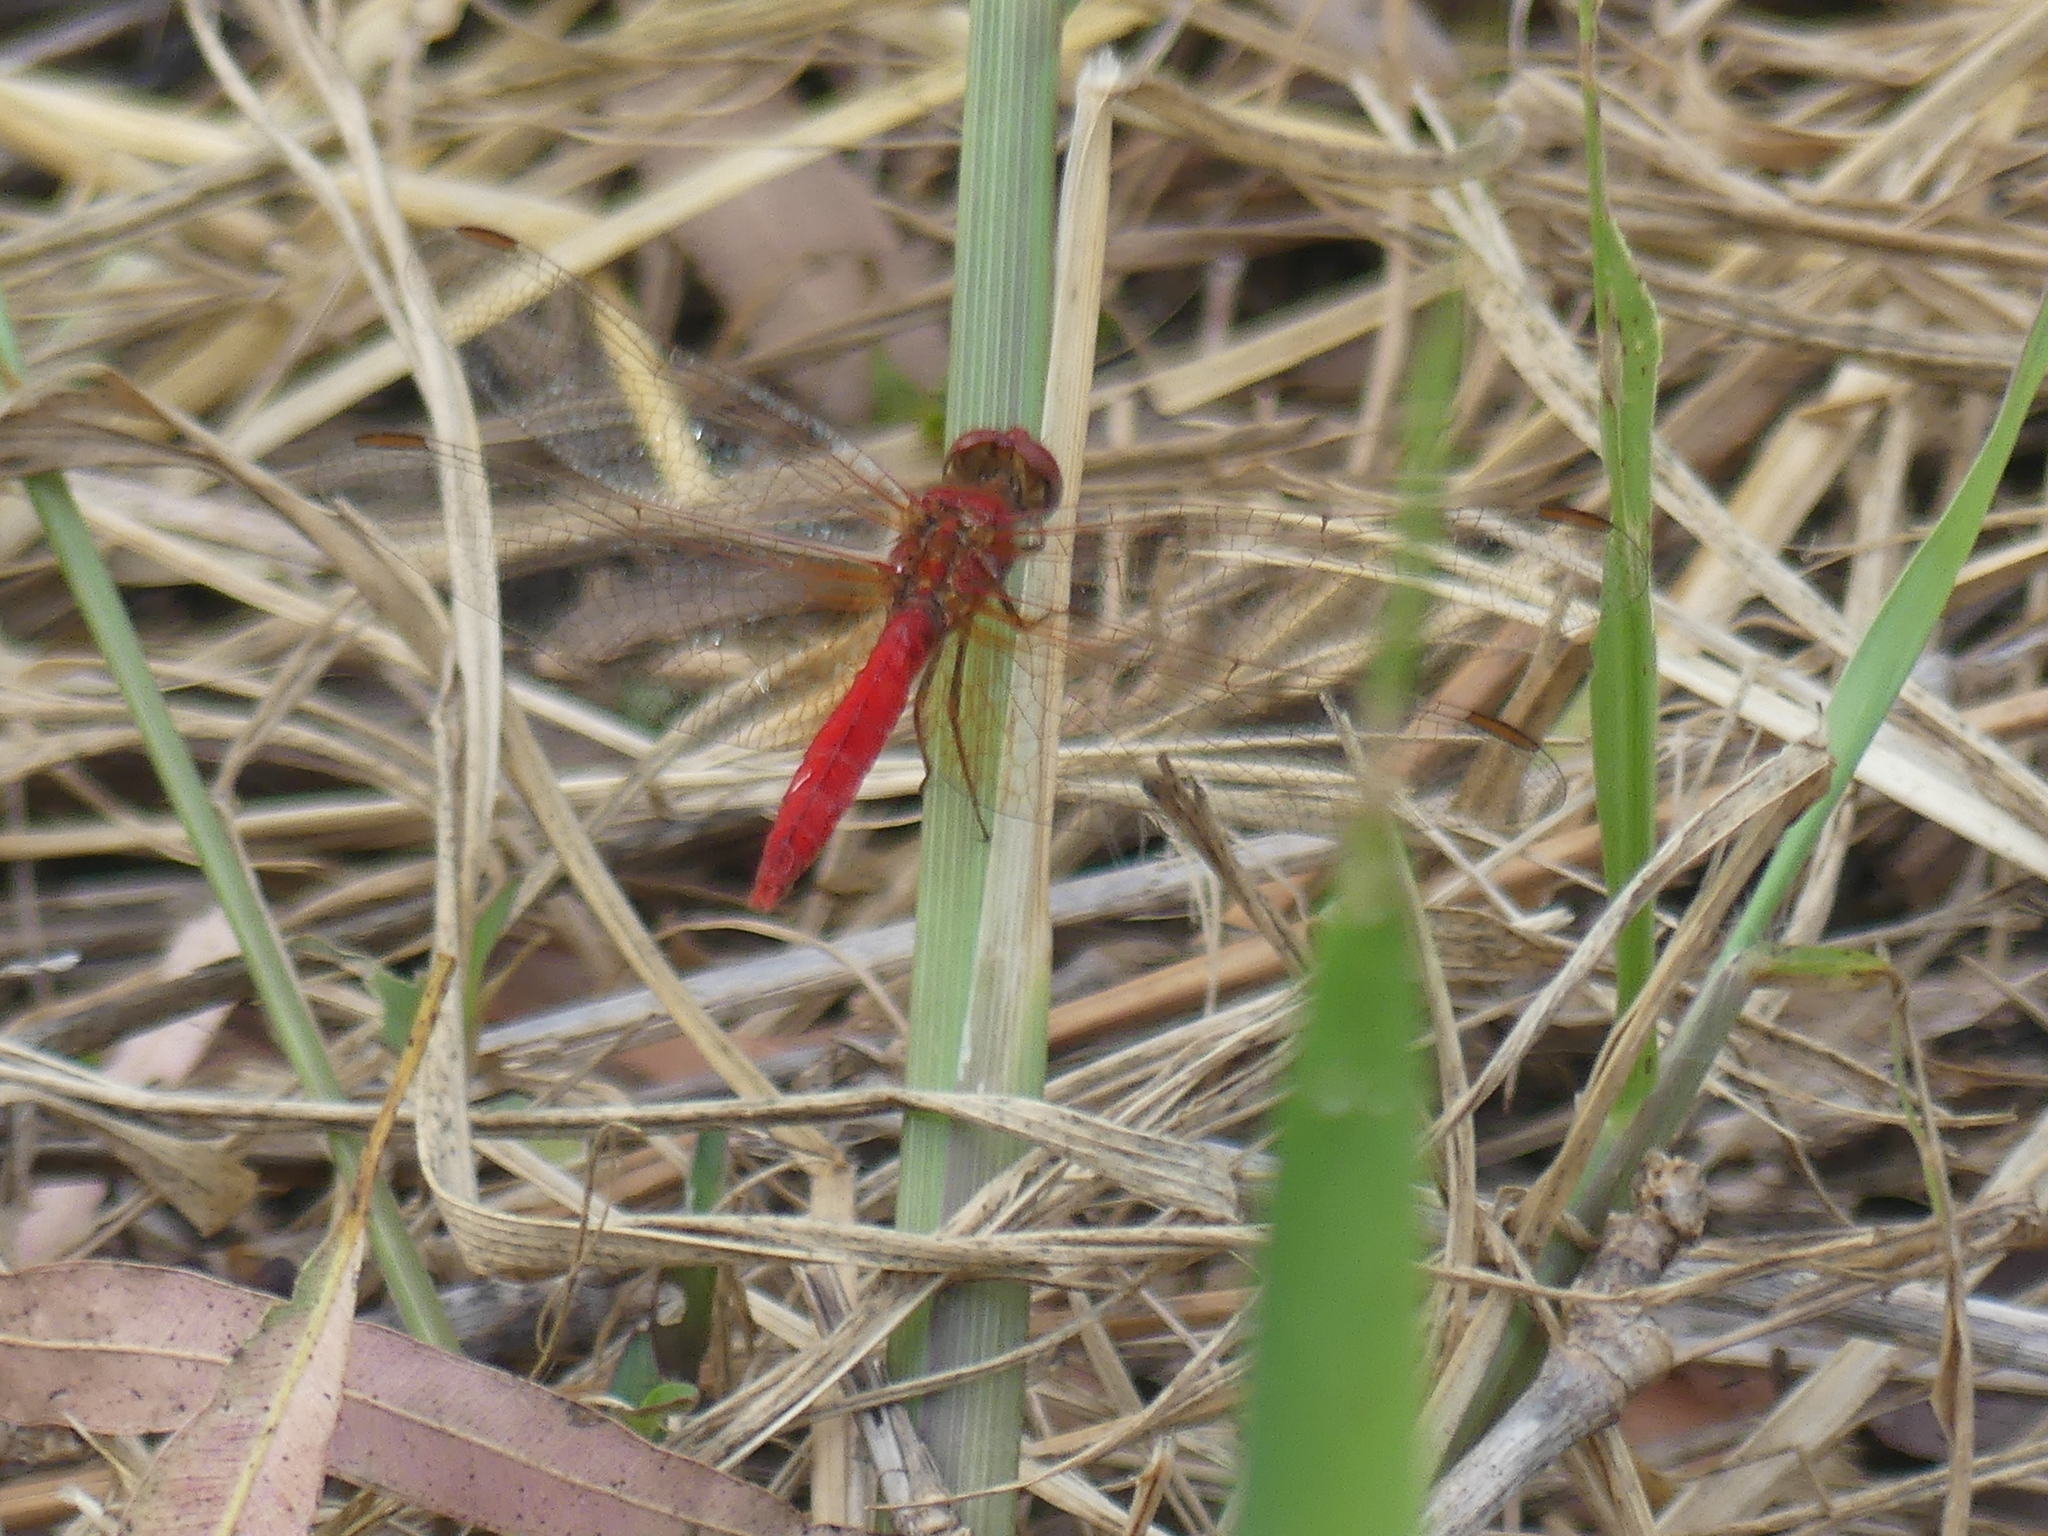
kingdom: Animalia
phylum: Arthropoda
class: Insecta
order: Odonata
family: Libellulidae
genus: Diplacodes
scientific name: Diplacodes haematodes
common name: Scarlet percher
